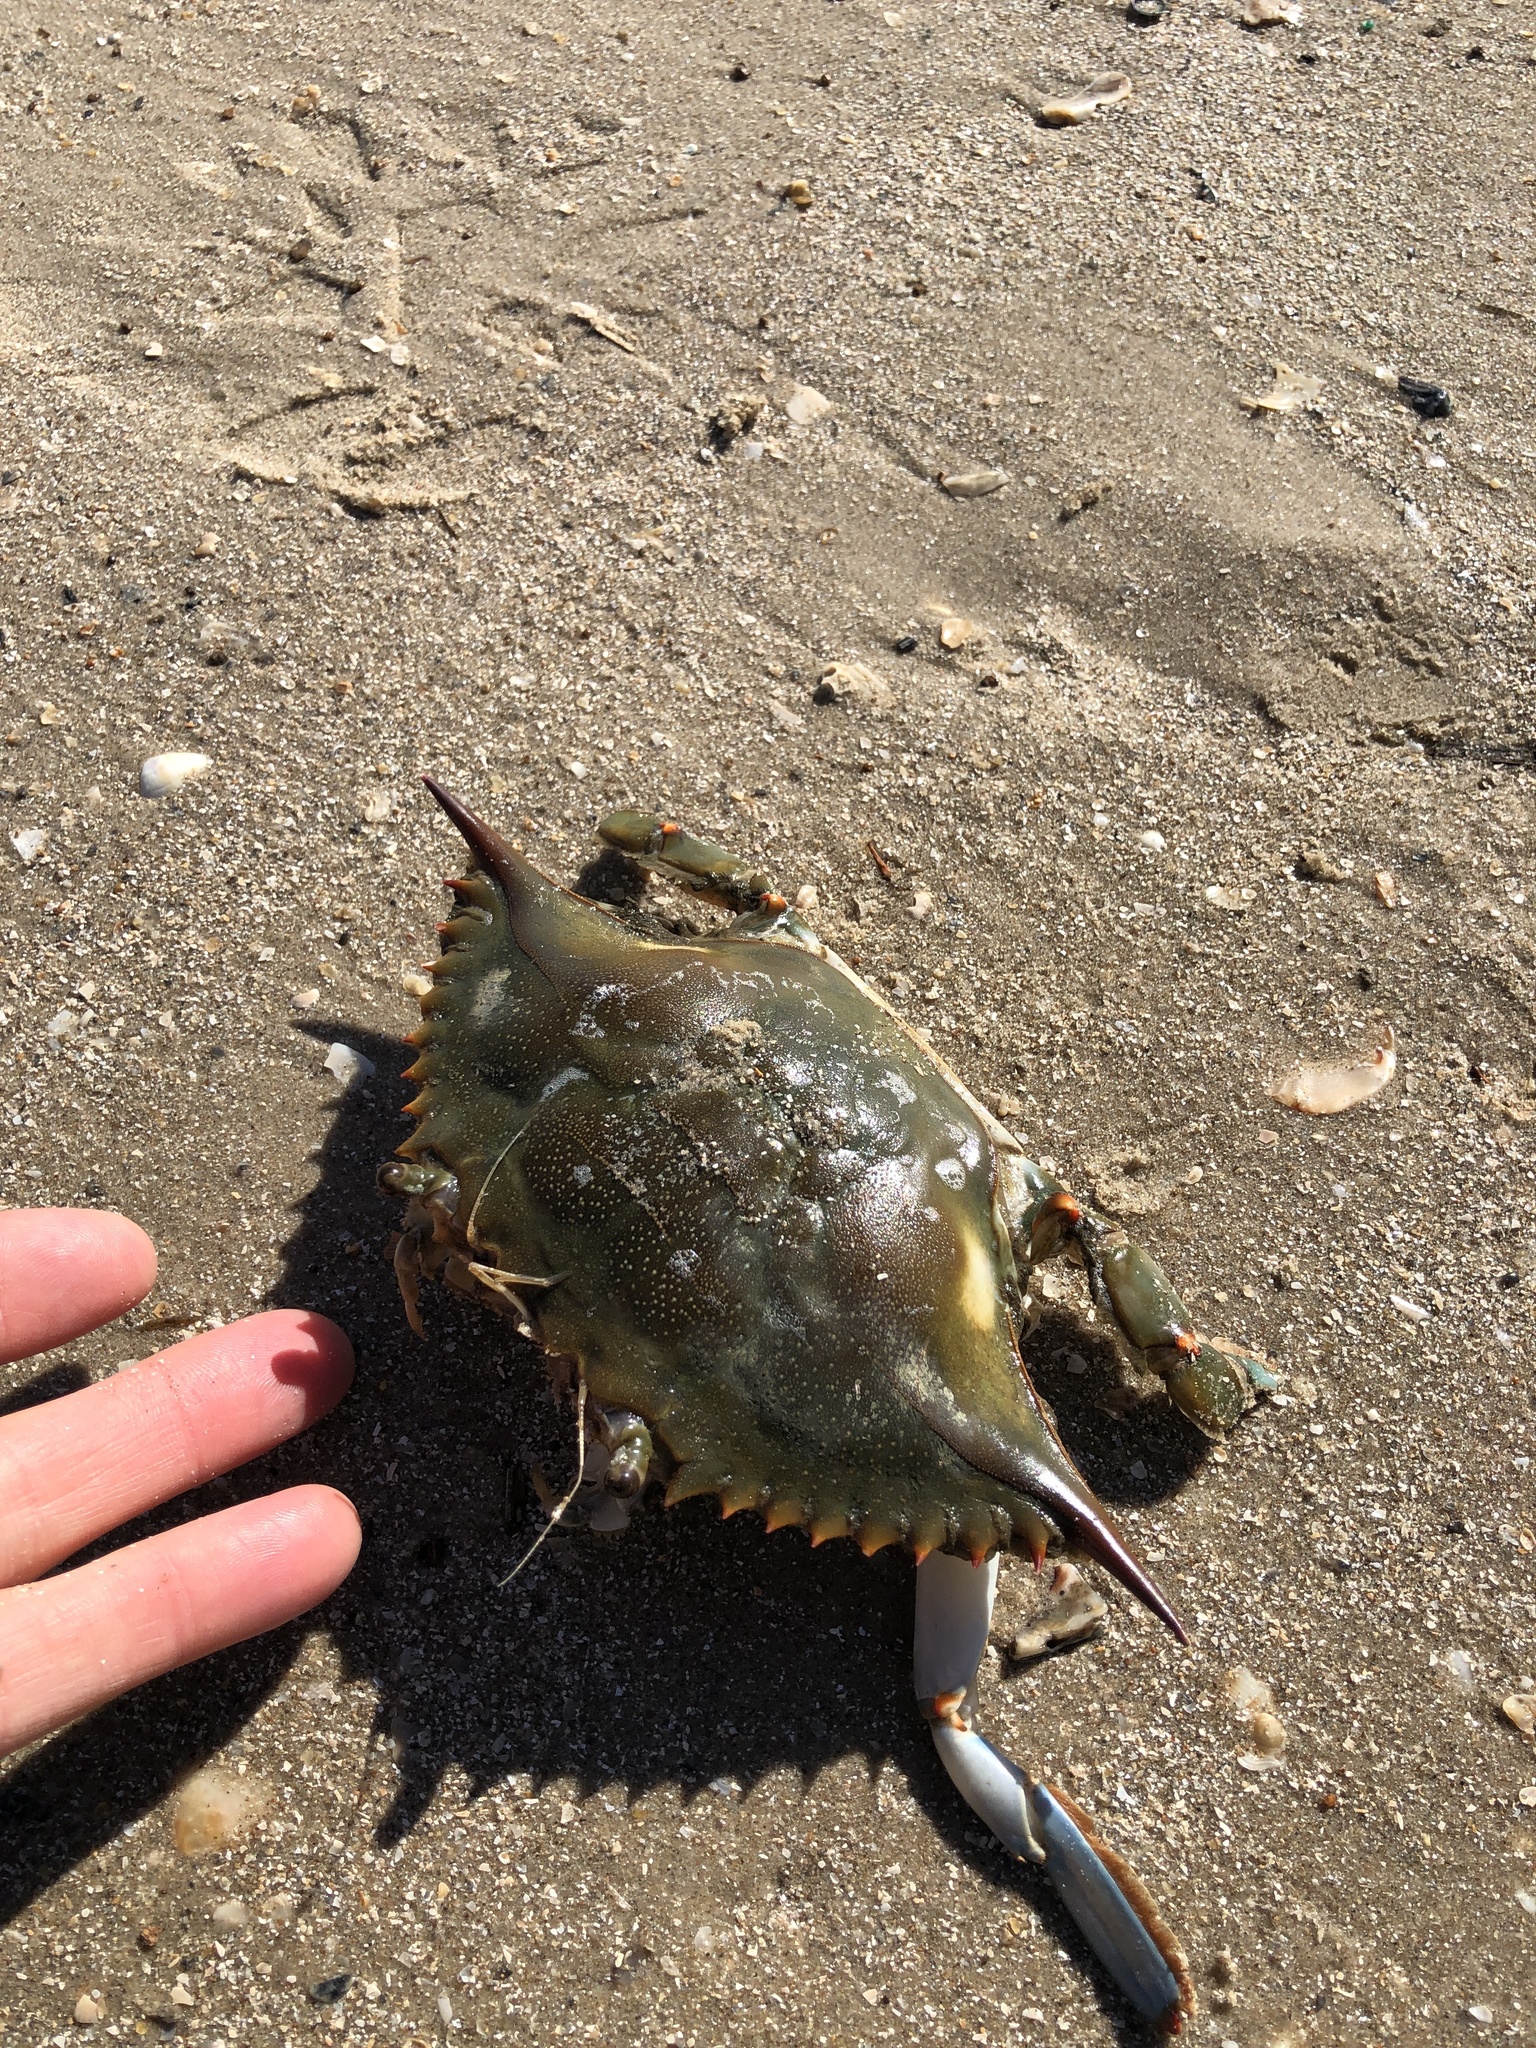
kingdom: Animalia
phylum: Arthropoda
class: Malacostraca
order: Decapoda
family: Portunidae
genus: Callinectes
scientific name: Callinectes sapidus
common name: Blue crab
